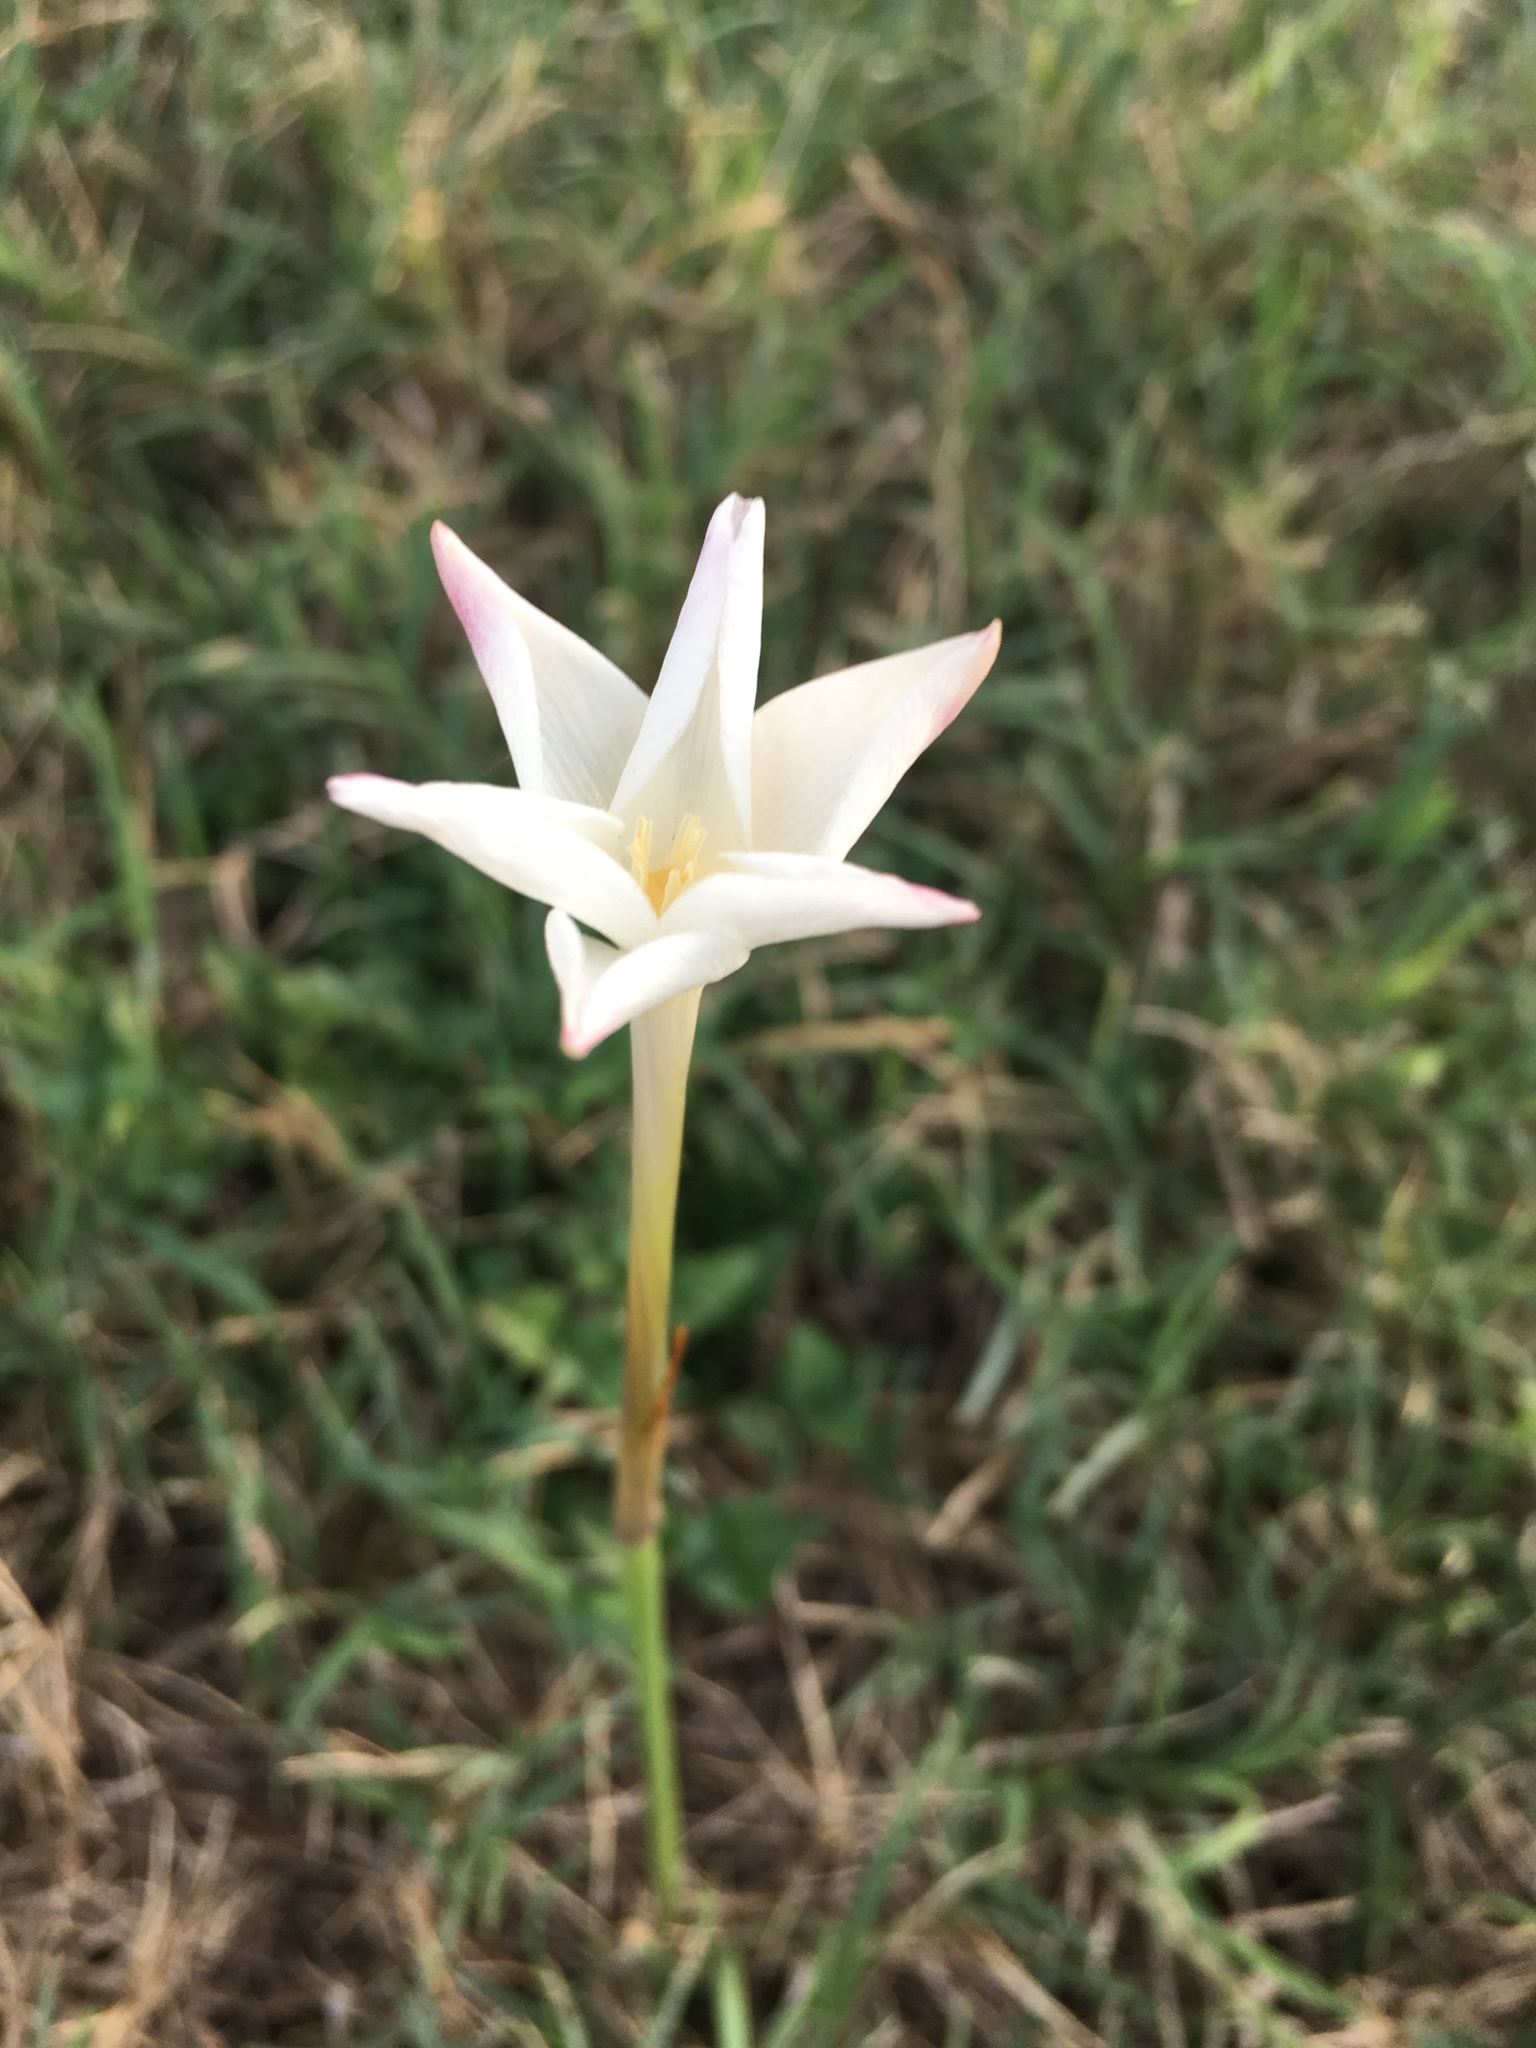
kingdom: Plantae
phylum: Tracheophyta
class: Liliopsida
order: Asparagales
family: Amaryllidaceae
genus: Zephyranthes
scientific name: Zephyranthes chlorosolen
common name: Evening rain-lily
